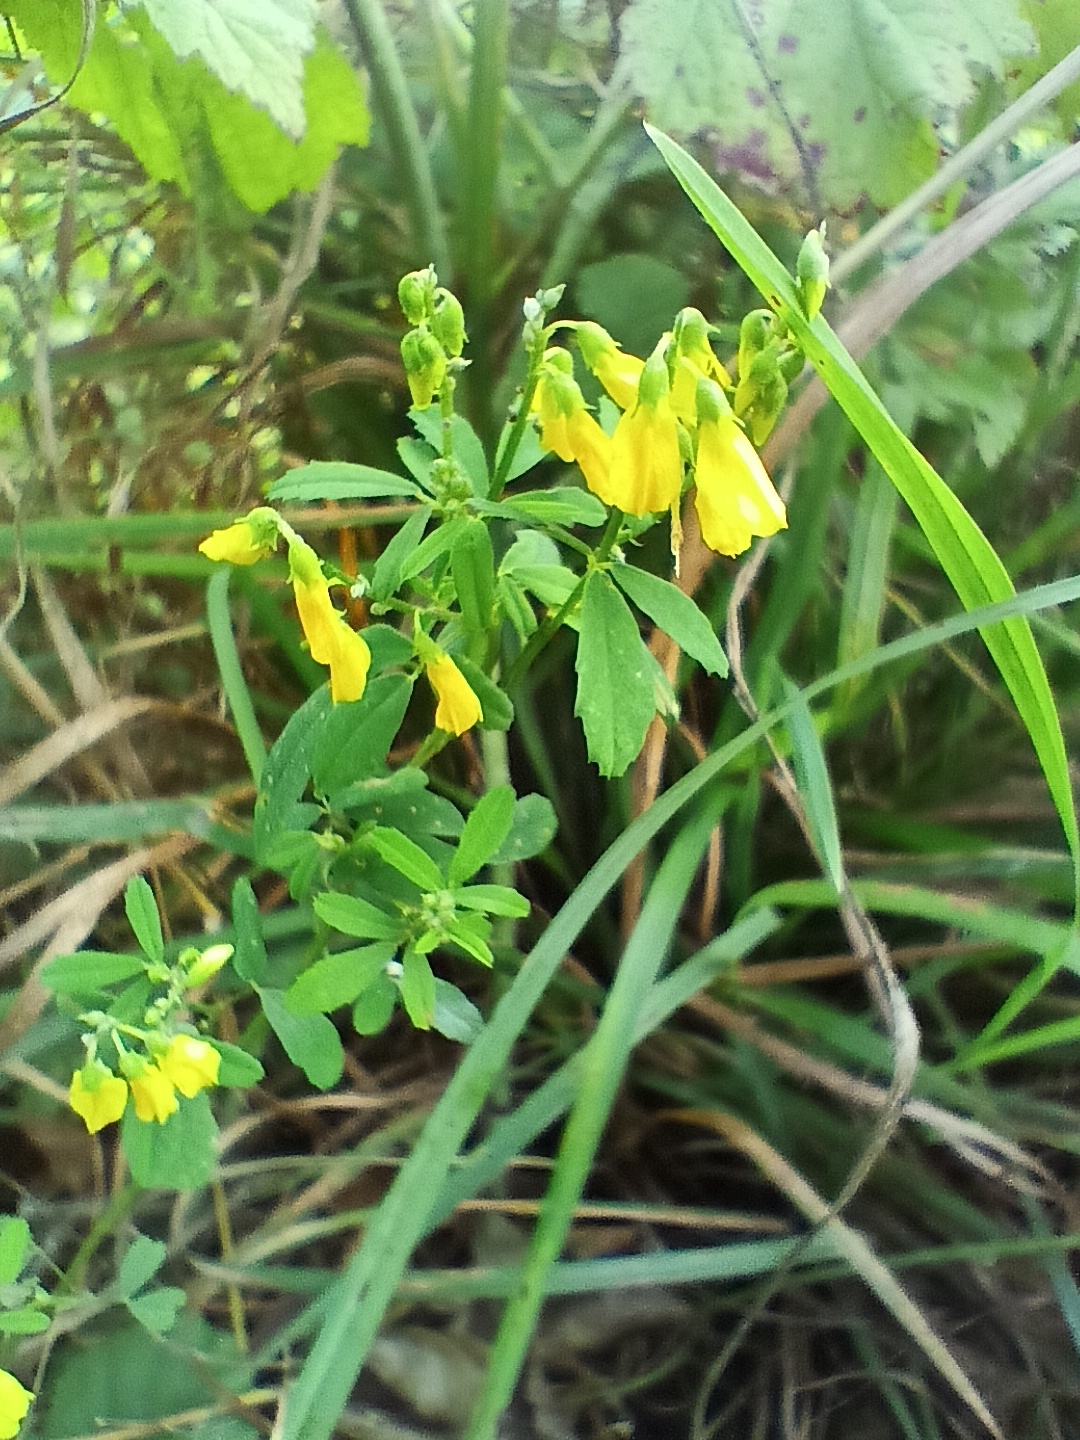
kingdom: Plantae
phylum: Tracheophyta
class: Magnoliopsida
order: Fabales
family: Fabaceae
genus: Melilotus
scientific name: Melilotus officinalis
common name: Sweetclover
